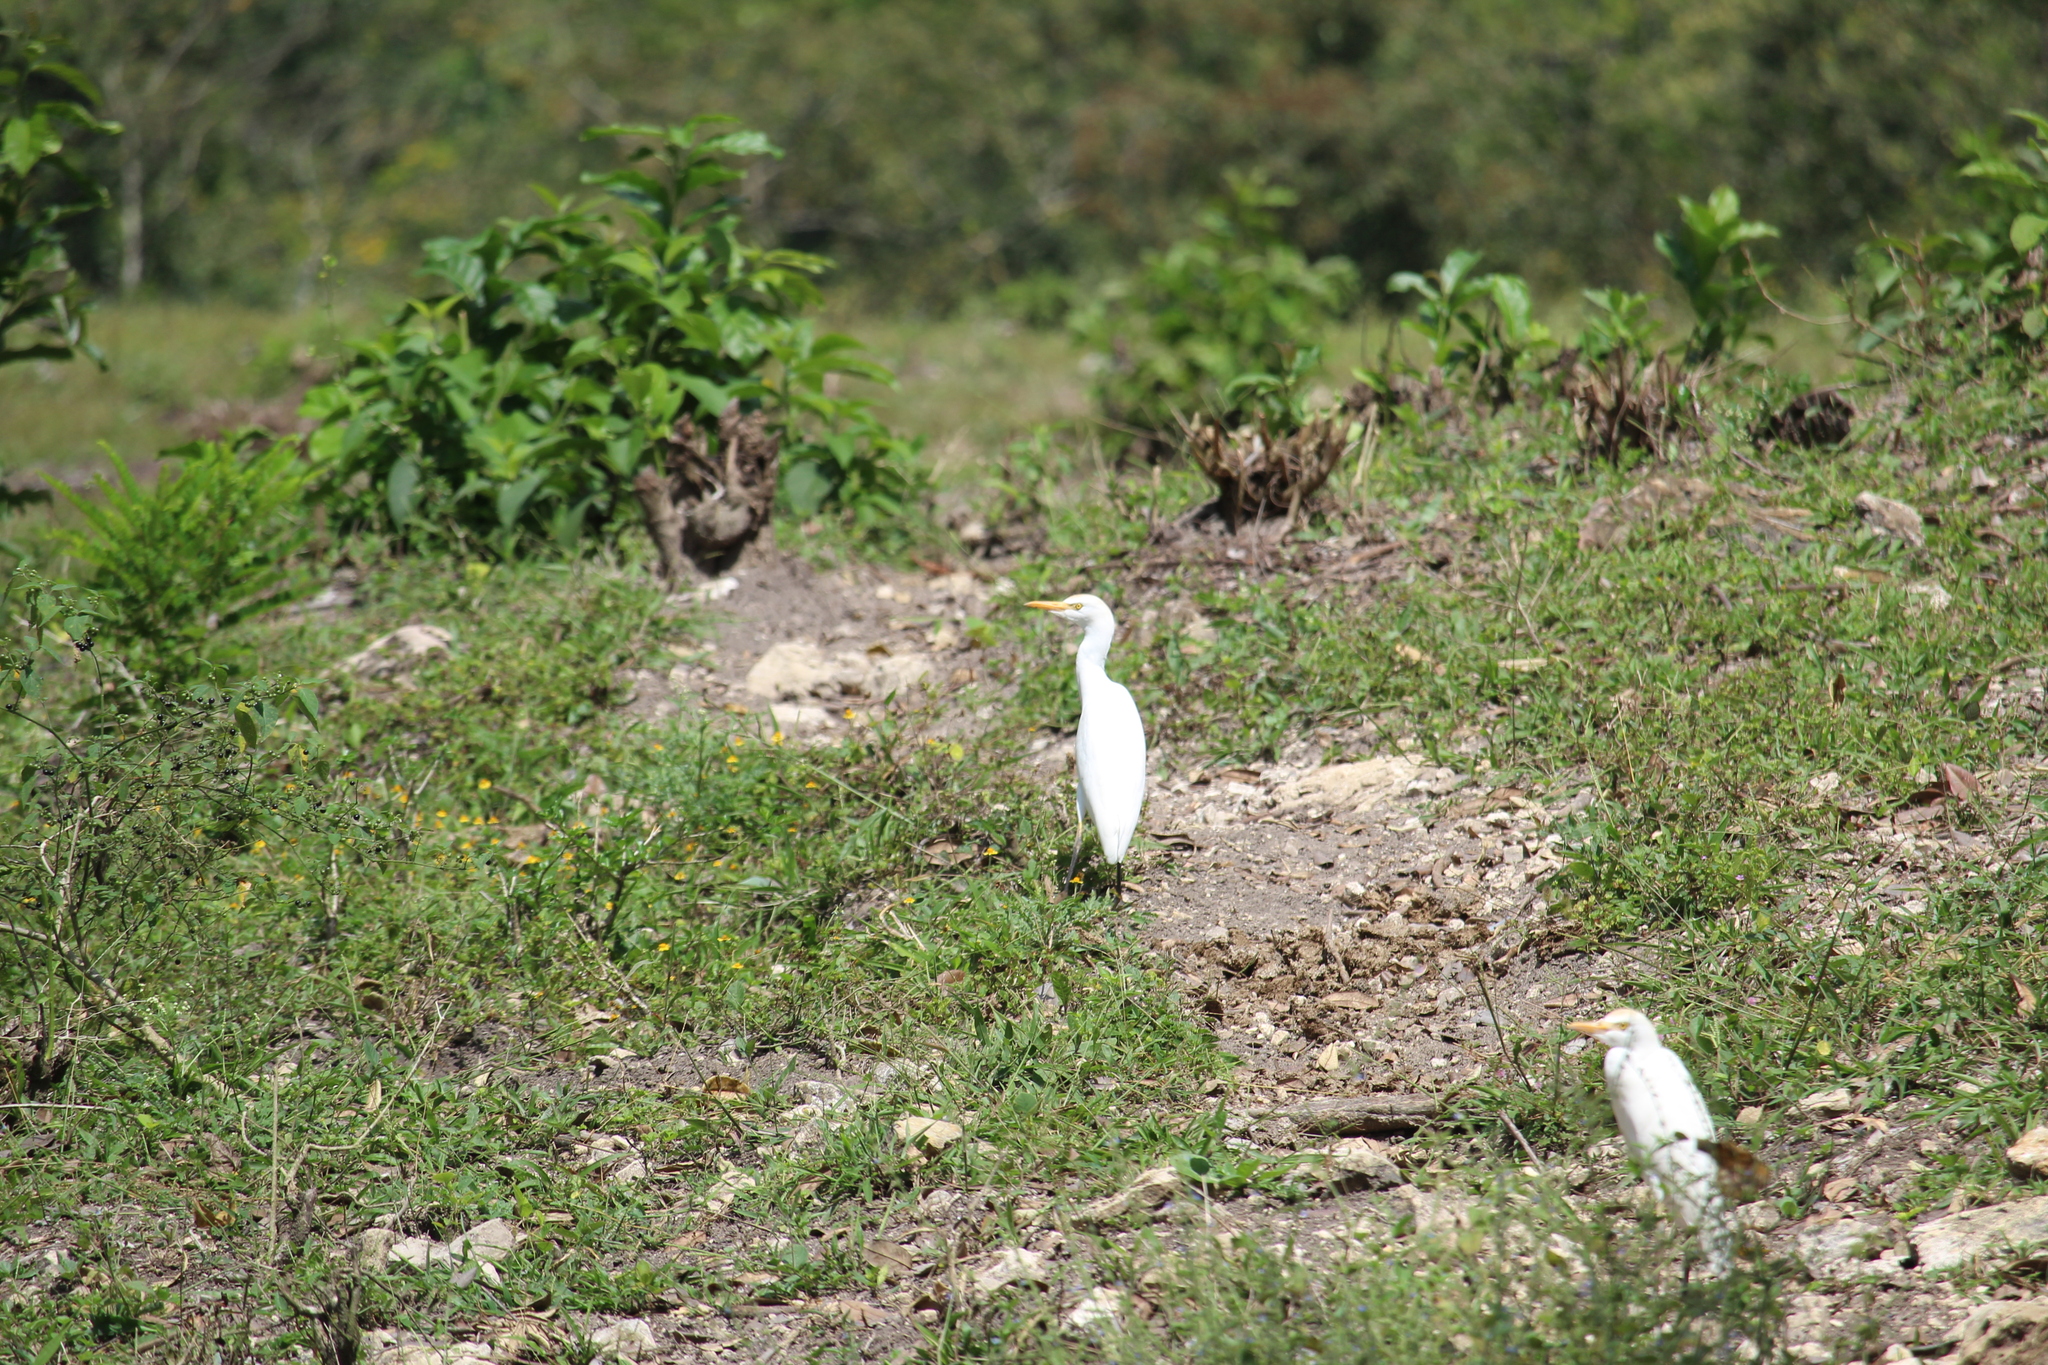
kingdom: Animalia
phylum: Chordata
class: Aves
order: Pelecaniformes
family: Ardeidae
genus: Bubulcus
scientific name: Bubulcus ibis
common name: Cattle egret
